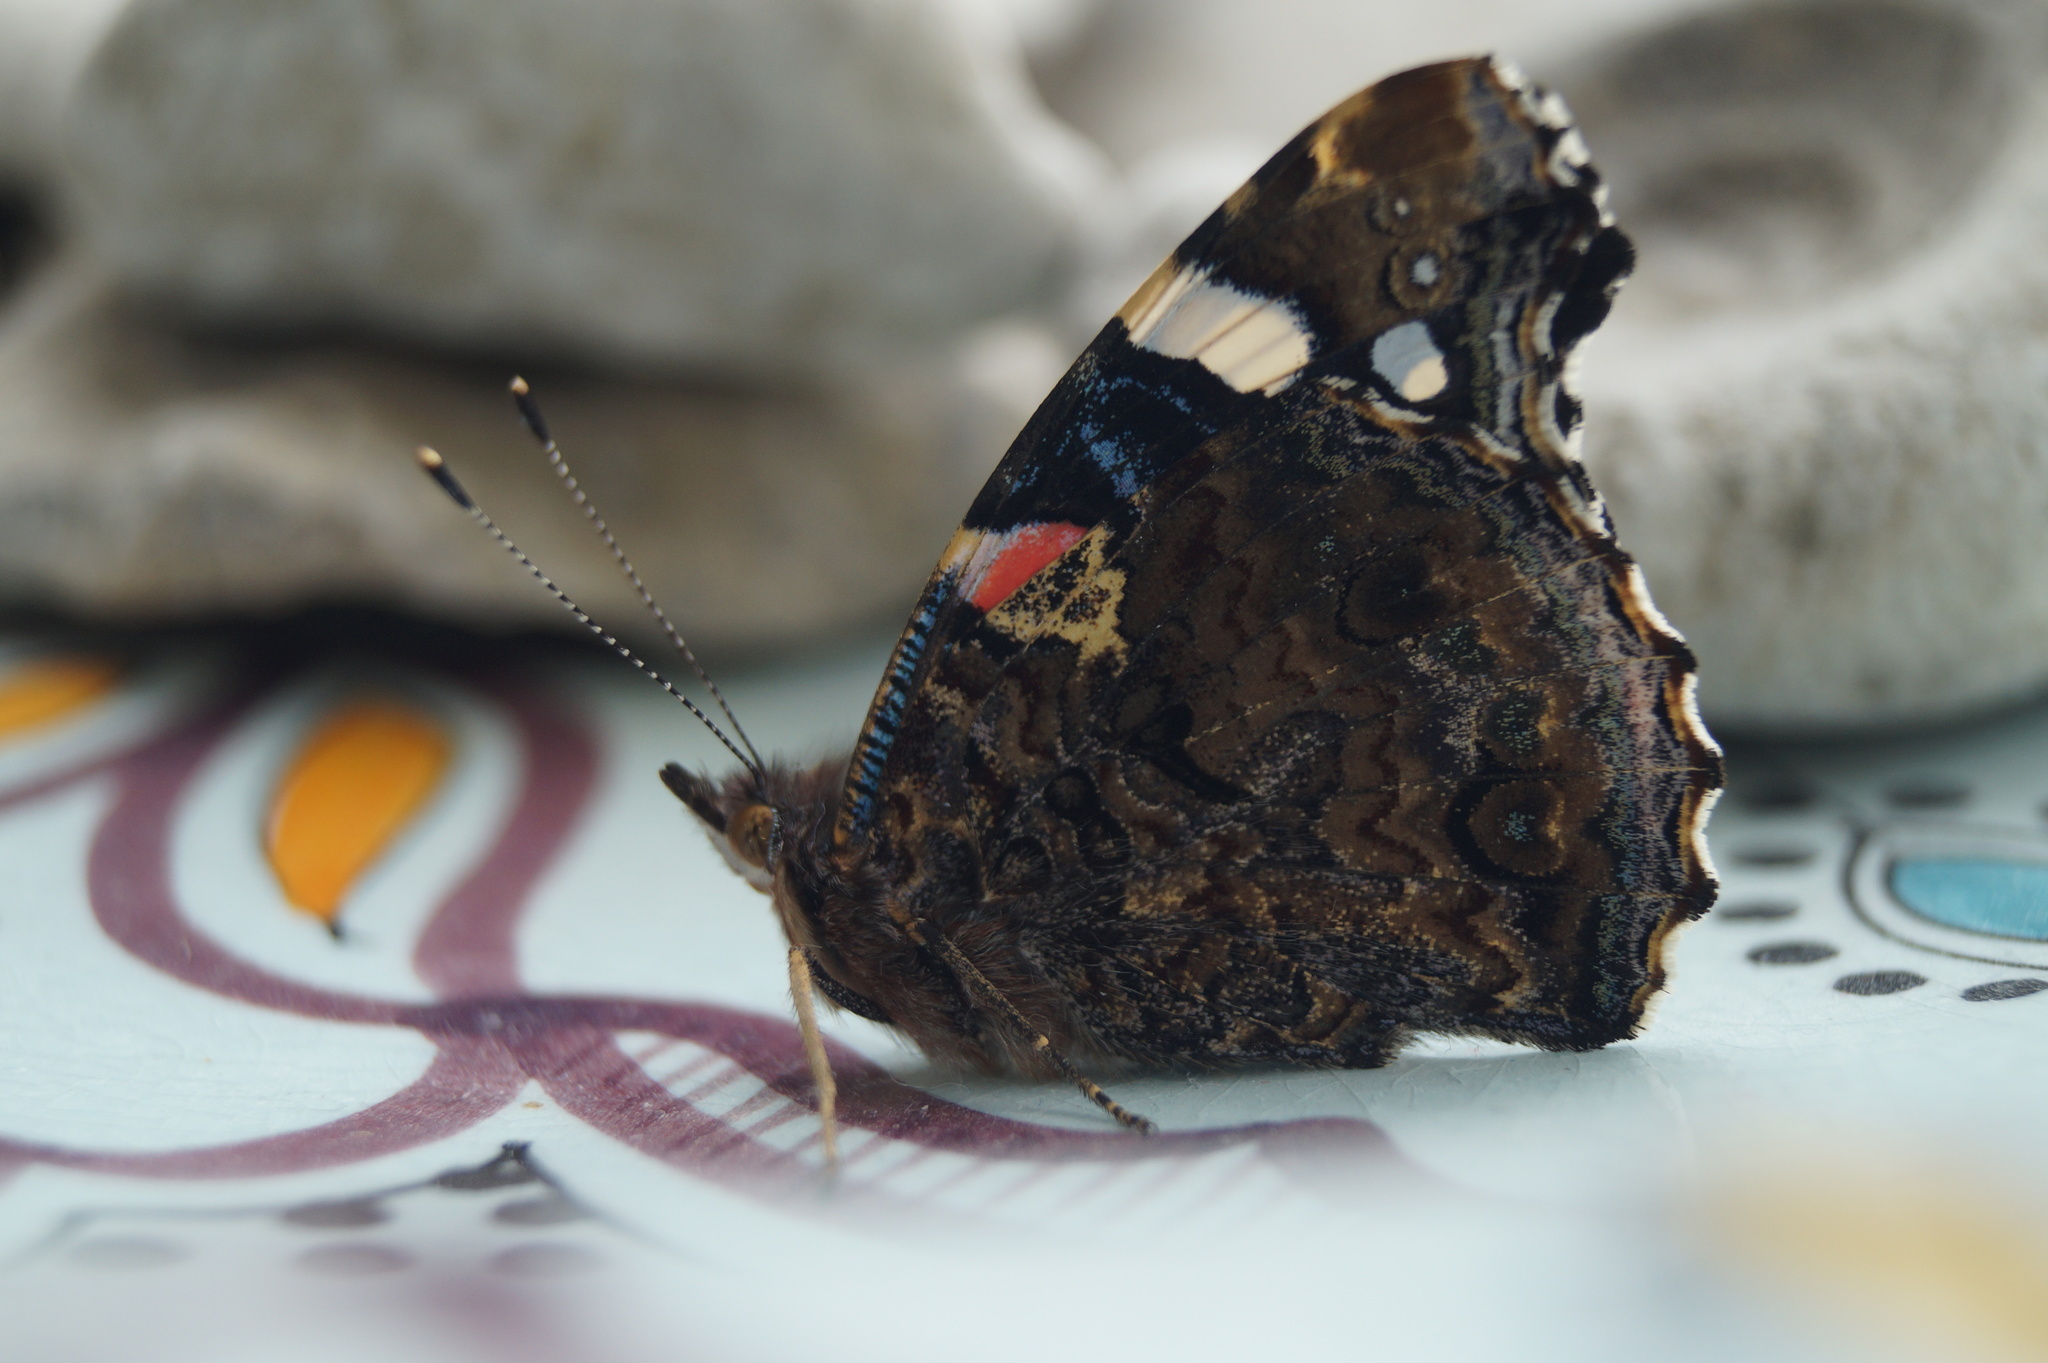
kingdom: Animalia
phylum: Arthropoda
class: Insecta
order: Lepidoptera
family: Nymphalidae
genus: Vanessa
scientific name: Vanessa atalanta
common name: Red admiral
